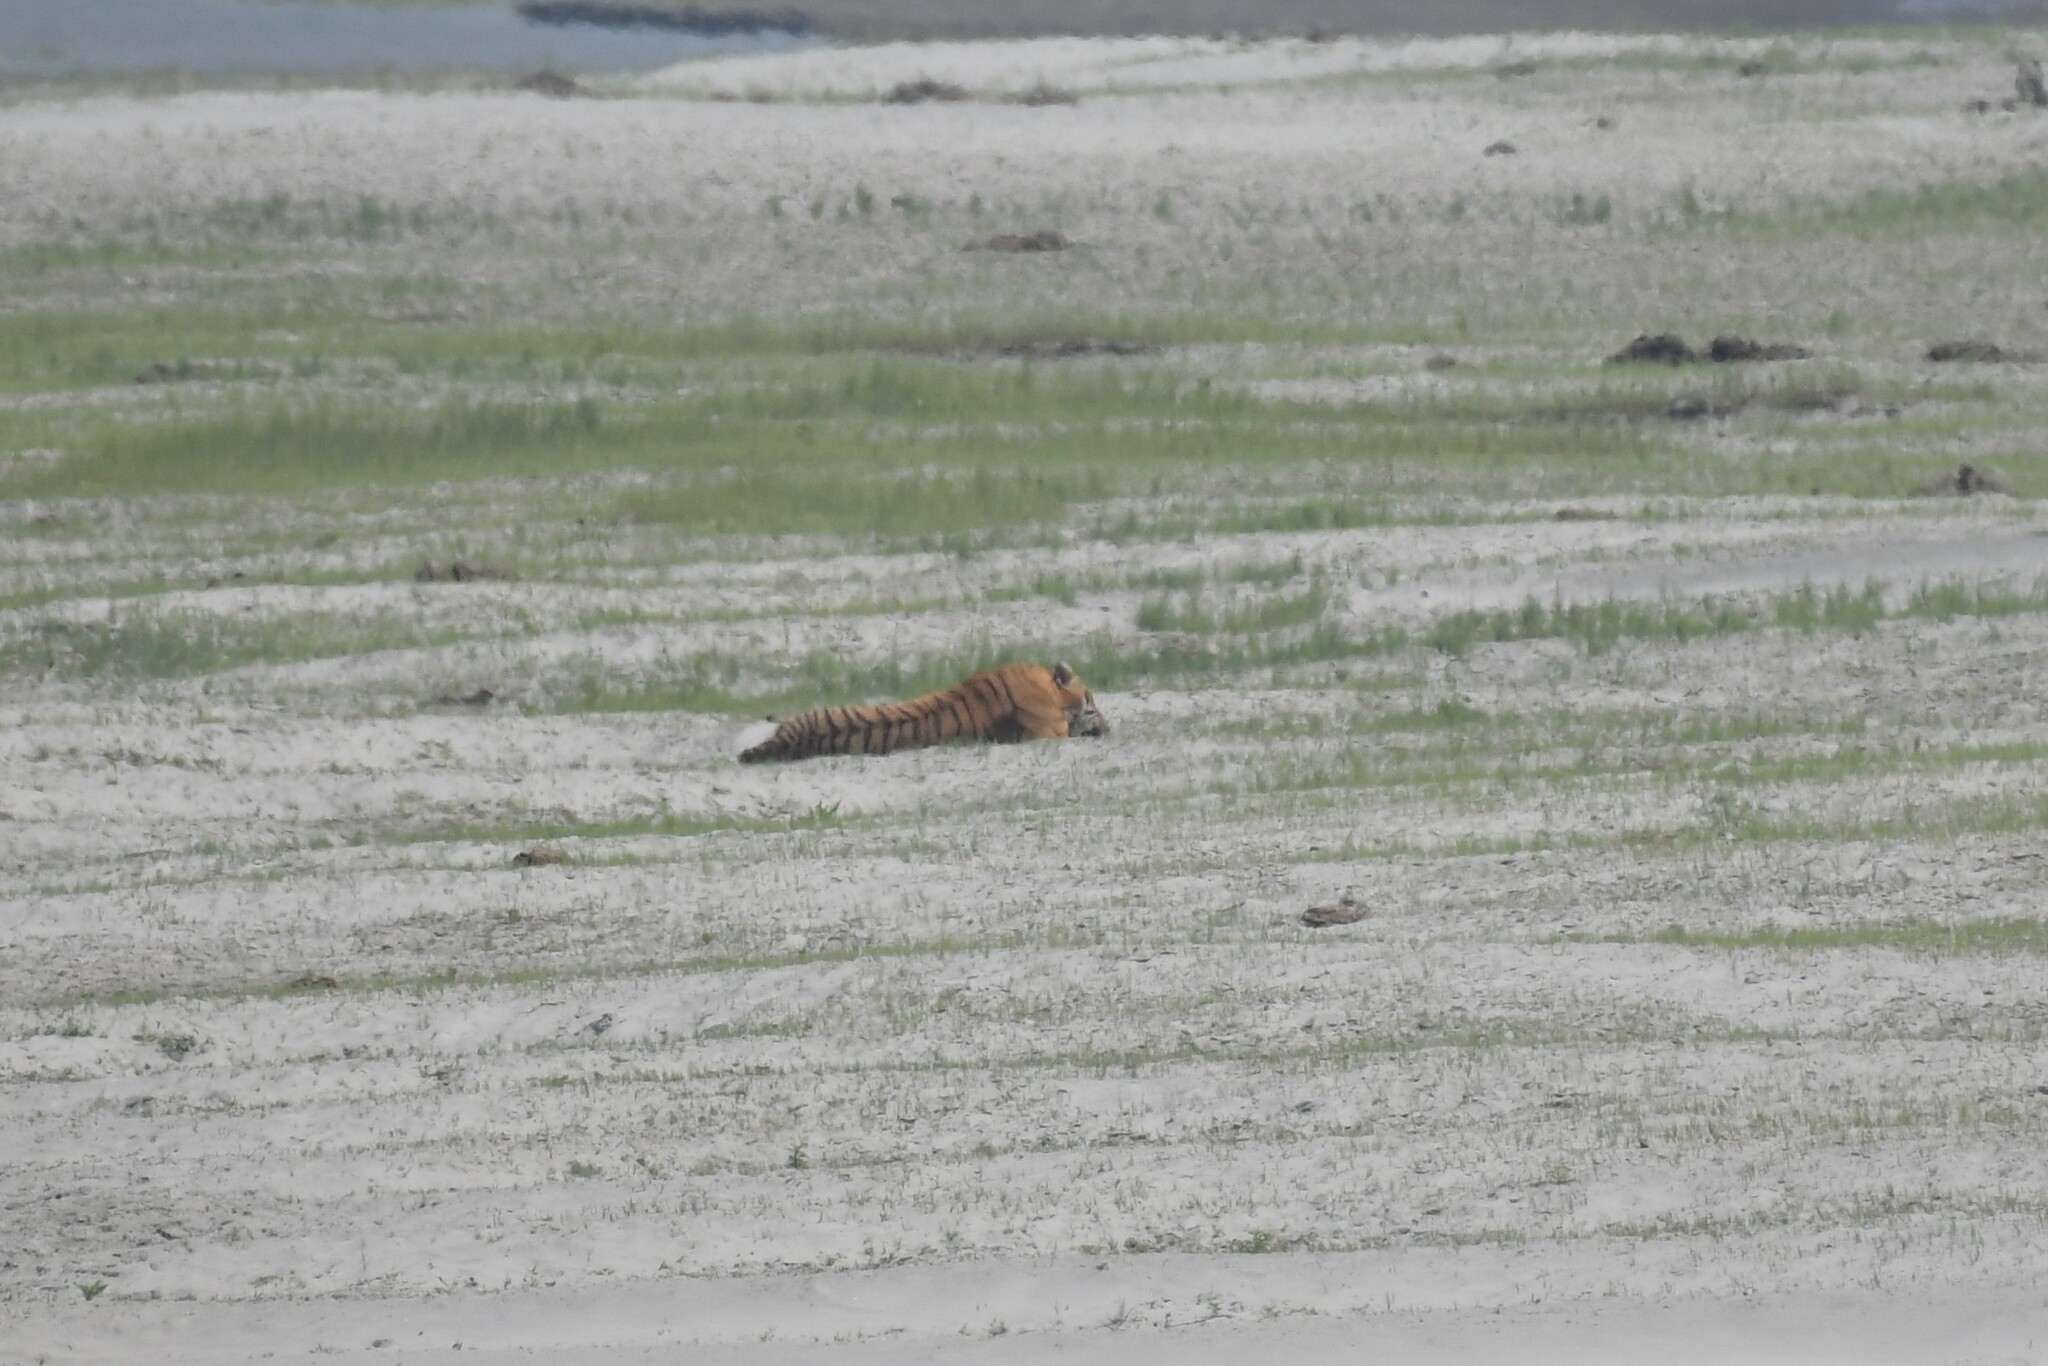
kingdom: Animalia
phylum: Chordata
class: Mammalia
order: Carnivora
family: Felidae
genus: Panthera
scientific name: Panthera tigris
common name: Tiger
